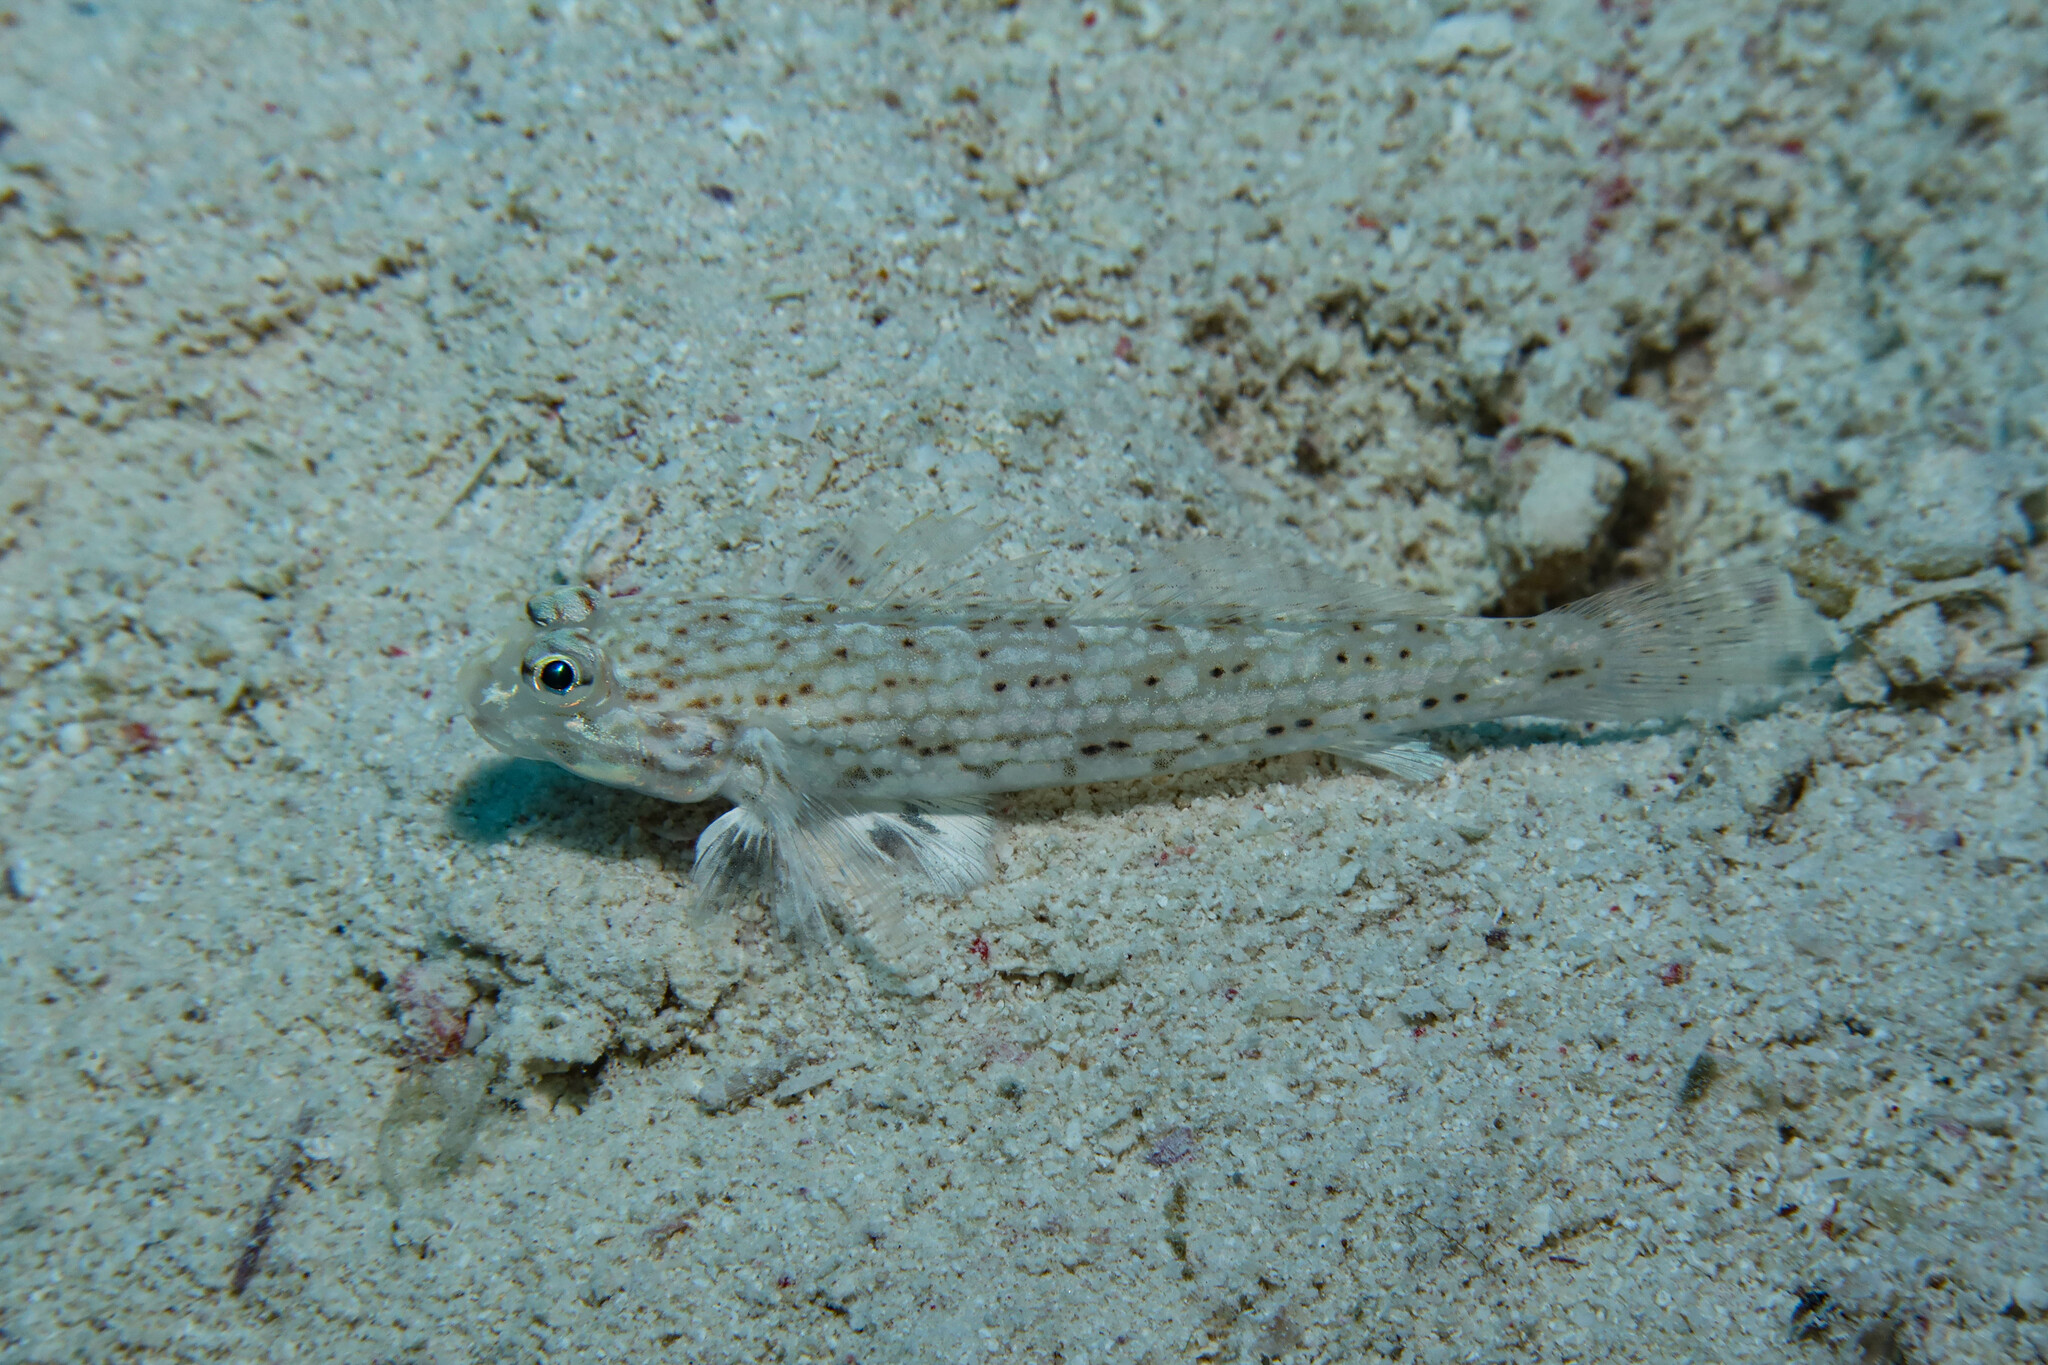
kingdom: Animalia
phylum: Chordata
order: Perciformes
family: Gobiidae
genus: Istigobius
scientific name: Istigobius decoratus
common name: Decorated goby
